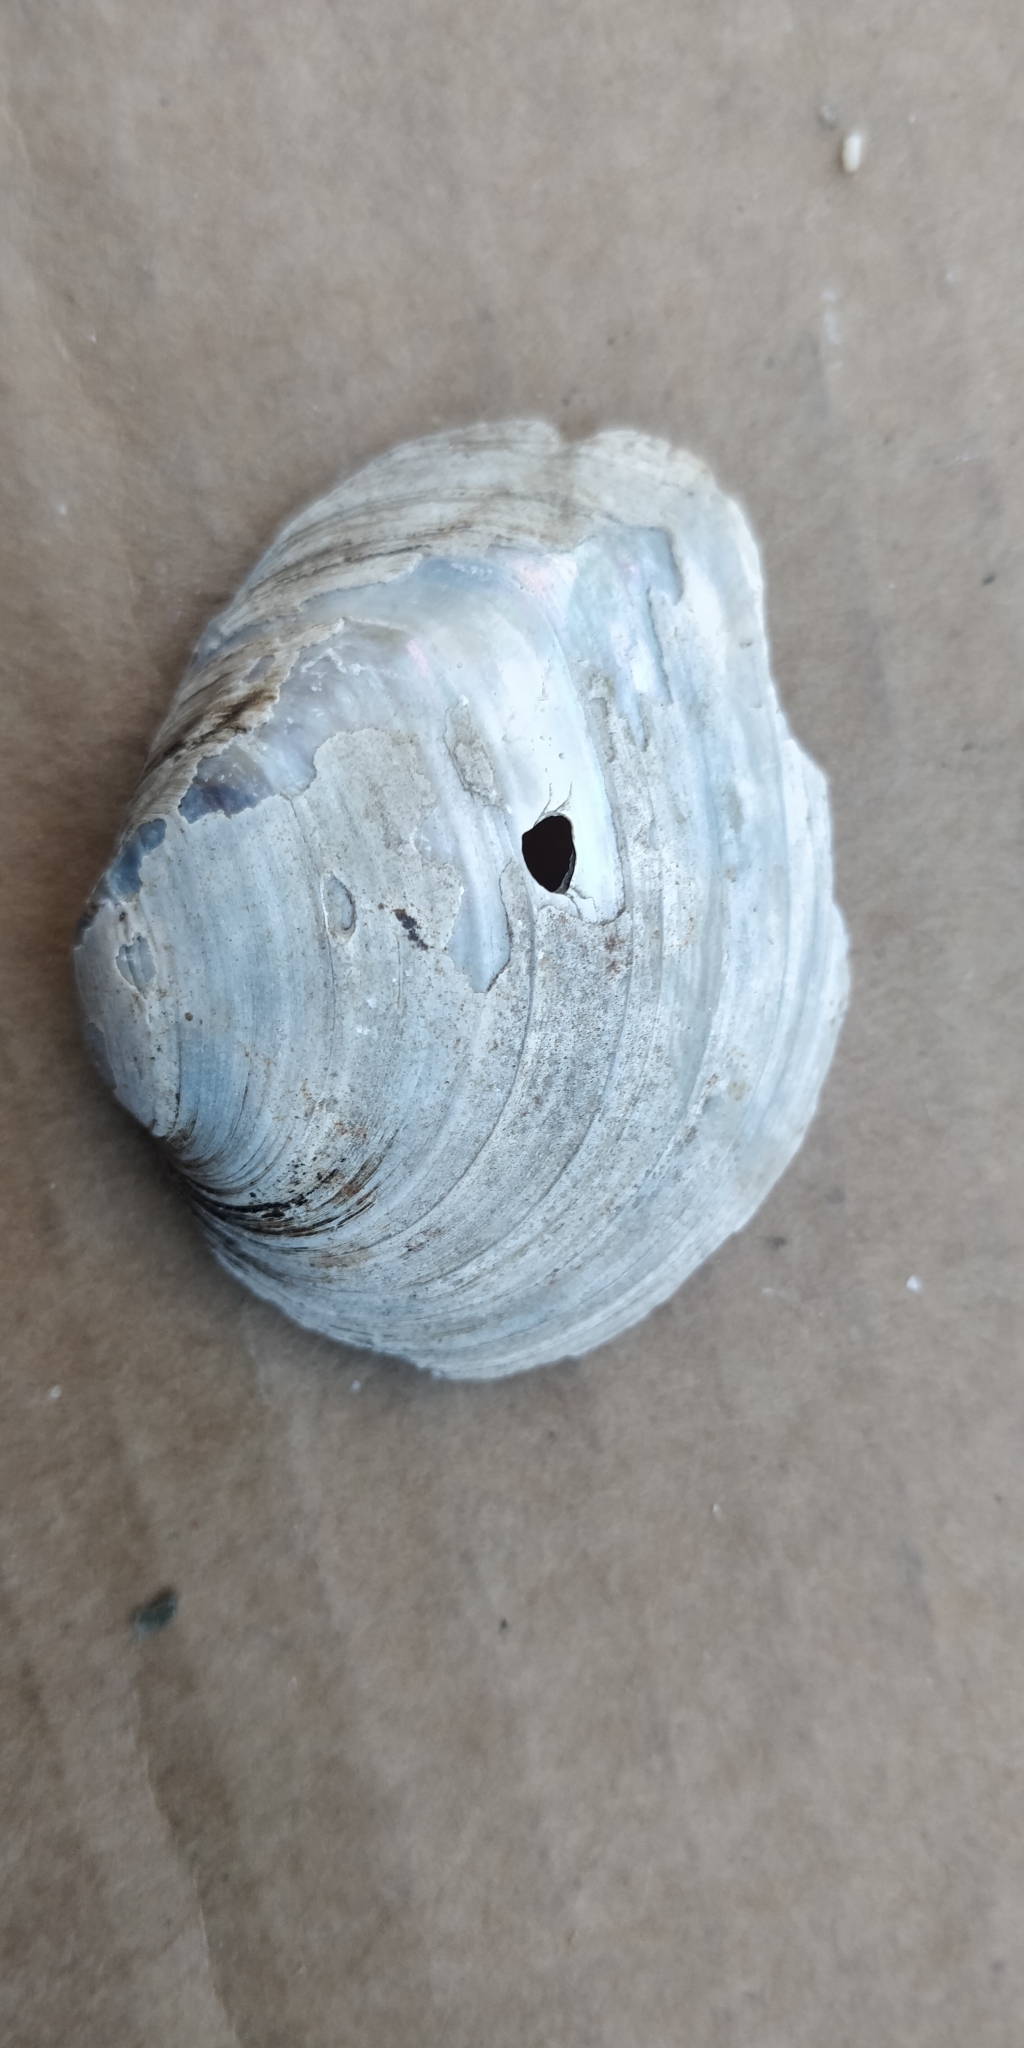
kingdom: Animalia
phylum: Mollusca
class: Bivalvia
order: Unionida
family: Unionidae
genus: Fusconaia
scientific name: Fusconaia flava
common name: Wabash pigtoe
